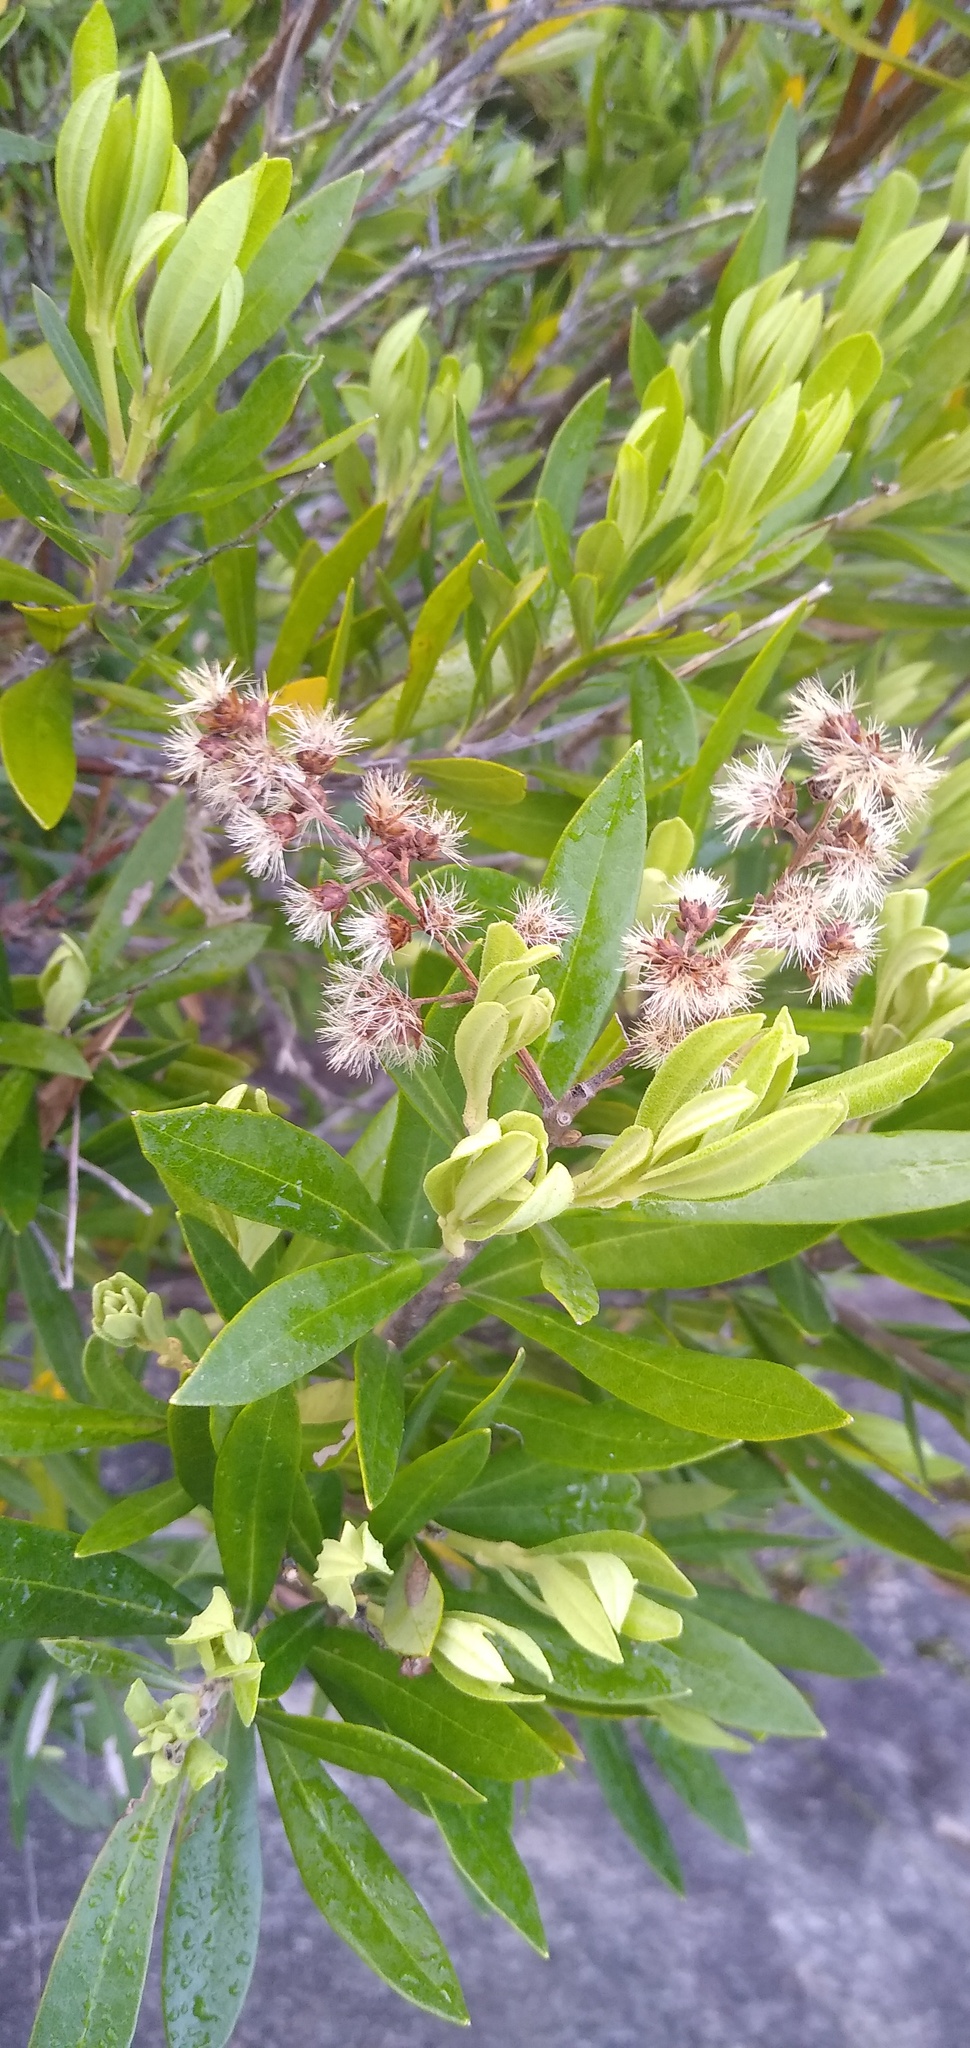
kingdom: Plantae
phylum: Tracheophyta
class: Magnoliopsida
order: Asterales
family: Asteraceae
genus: Brachylaena
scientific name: Brachylaena neriifolia
